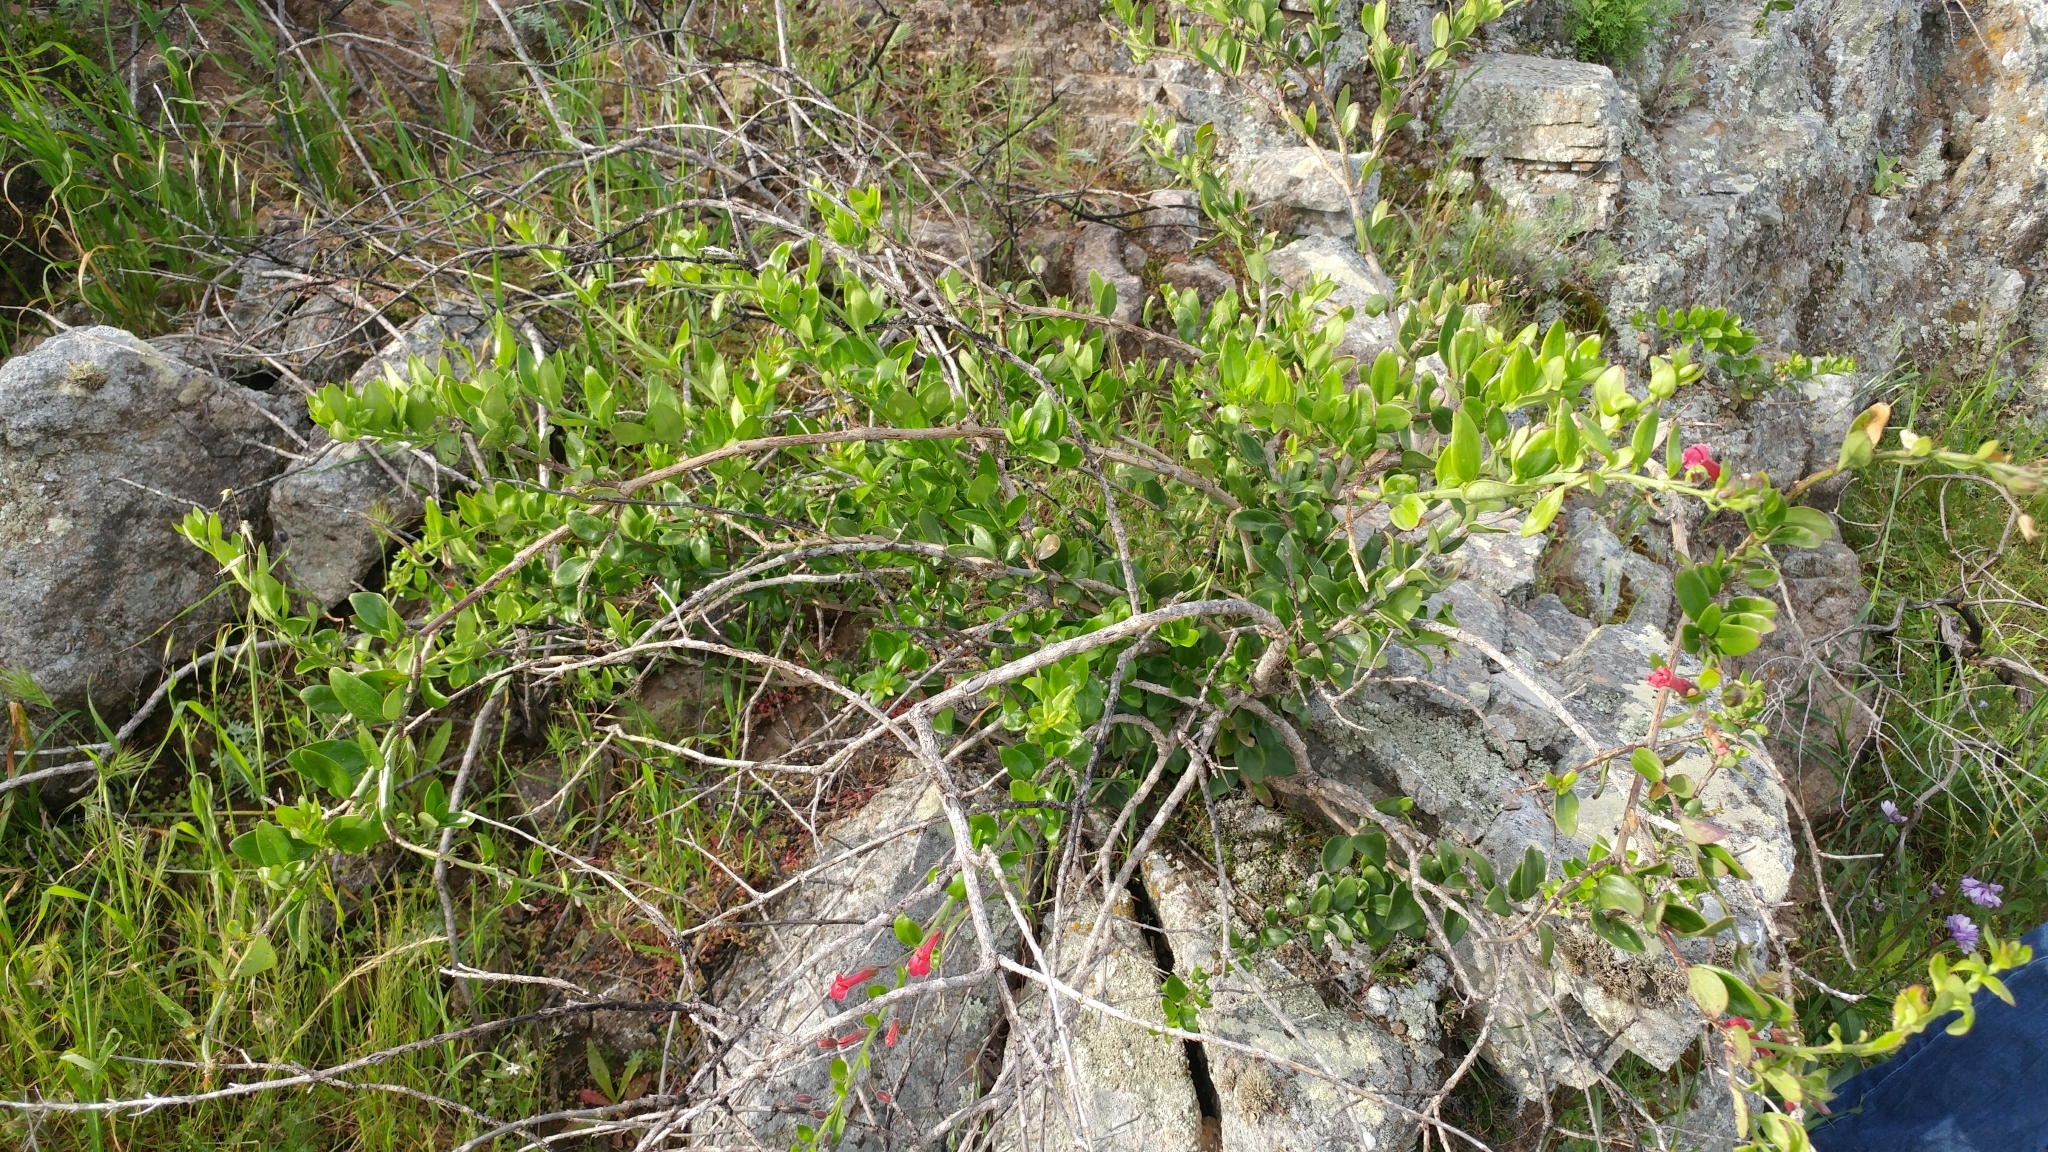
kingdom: Plantae
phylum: Tracheophyta
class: Magnoliopsida
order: Lamiales
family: Plantaginaceae
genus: Gambelia
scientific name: Gambelia speciosa
